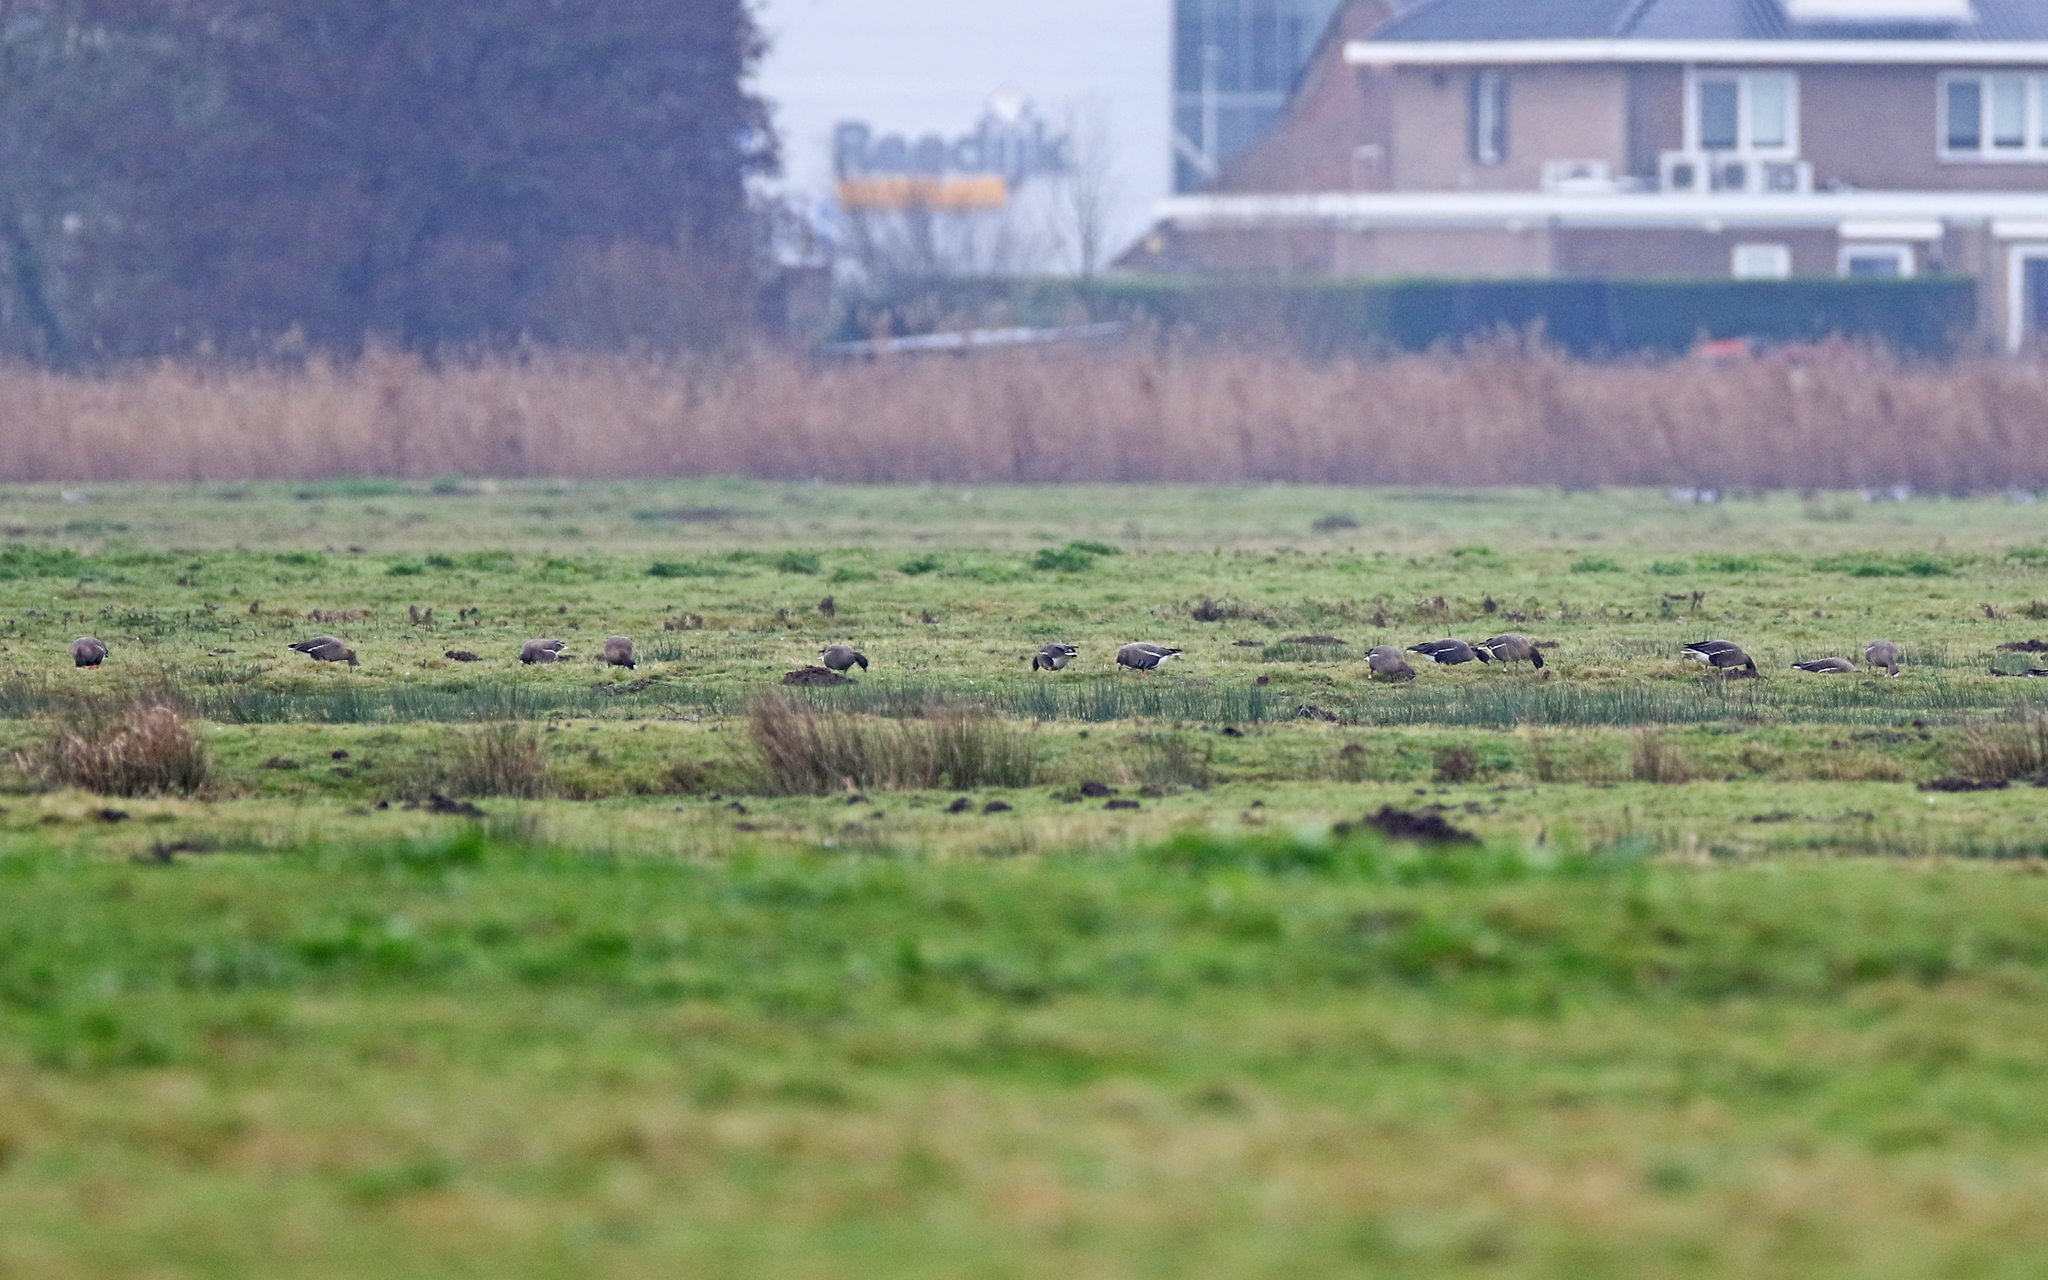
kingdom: Animalia
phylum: Chordata
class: Aves
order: Anseriformes
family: Anatidae
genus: Anser
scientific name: Anser erythropus
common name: Lesser white-fronted goose
